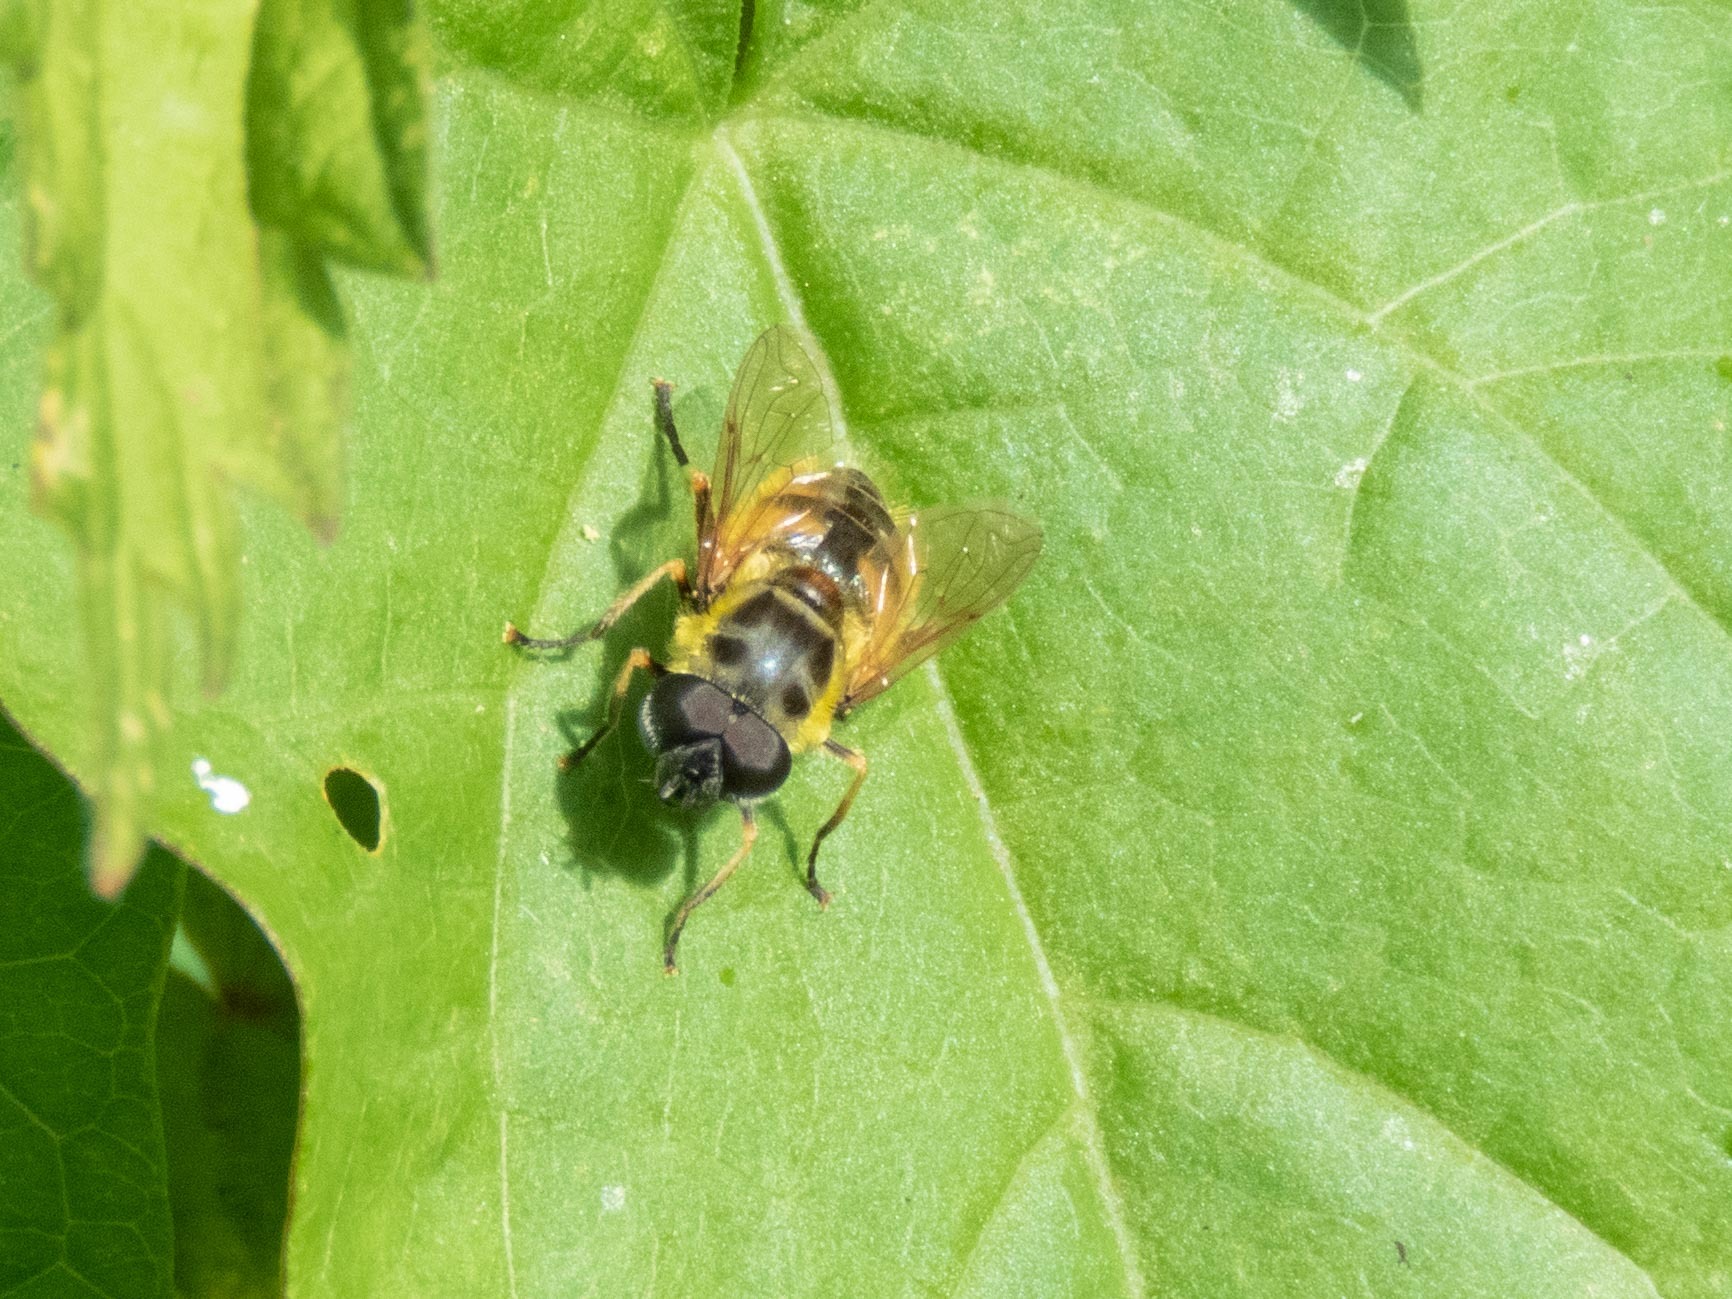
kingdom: Animalia
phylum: Arthropoda
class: Insecta
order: Diptera
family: Syrphidae
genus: Myathropa
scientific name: Myathropa florea
